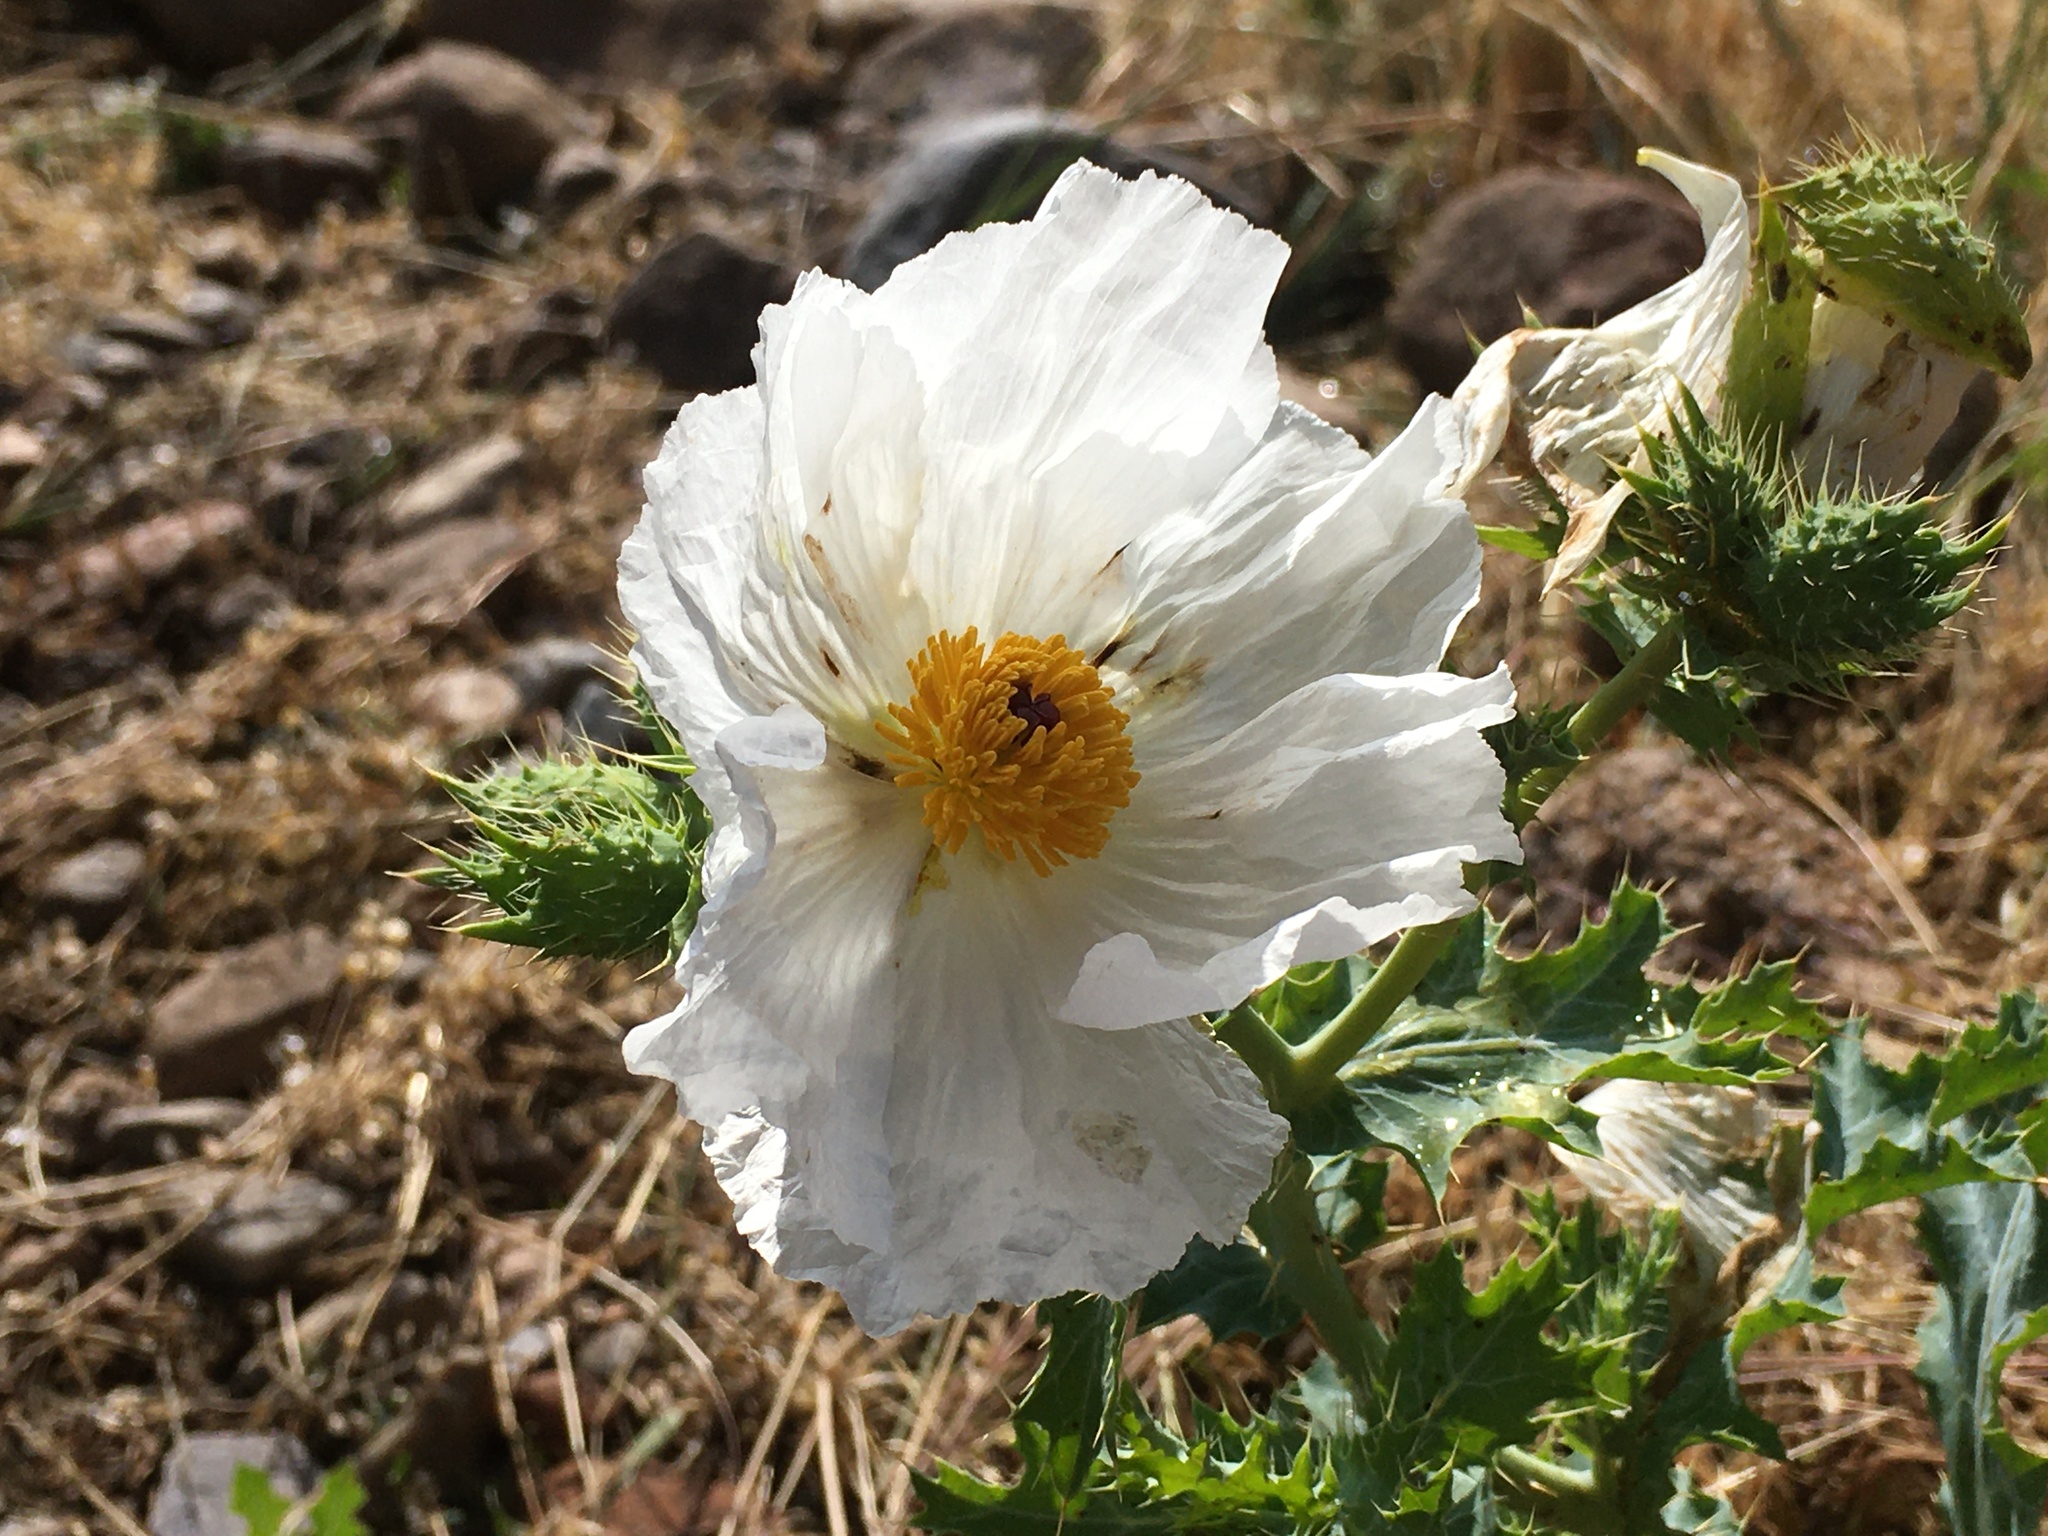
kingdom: Plantae
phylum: Tracheophyta
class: Magnoliopsida
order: Ranunculales
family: Papaveraceae
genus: Argemone
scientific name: Argemone polyanthemos
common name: Plains prickly-poppy
